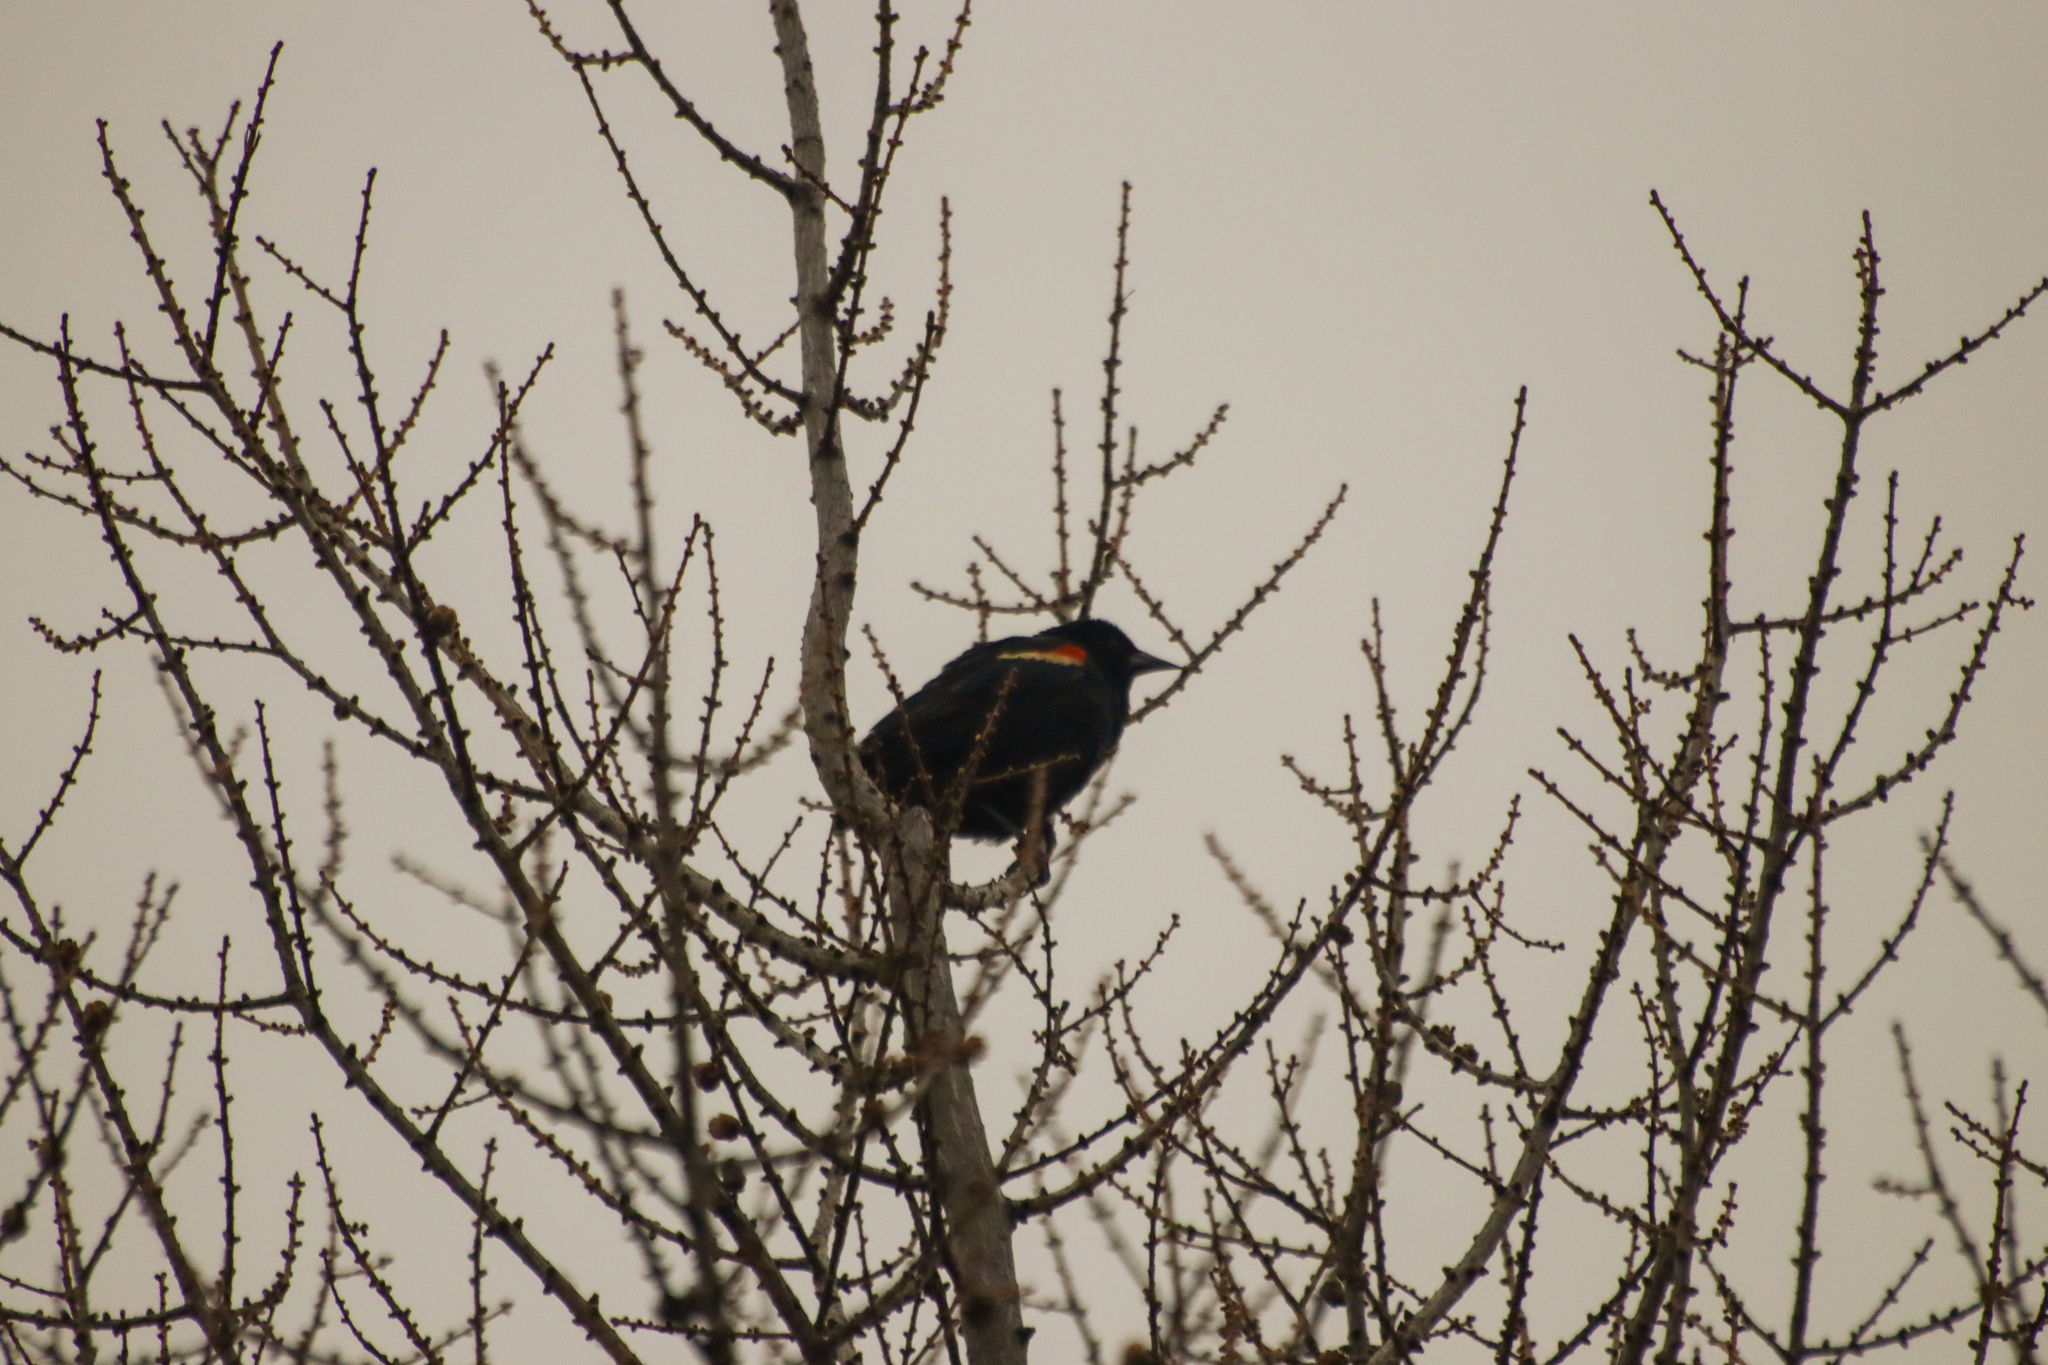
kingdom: Animalia
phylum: Chordata
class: Aves
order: Passeriformes
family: Icteridae
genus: Agelaius
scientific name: Agelaius phoeniceus
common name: Red-winged blackbird
